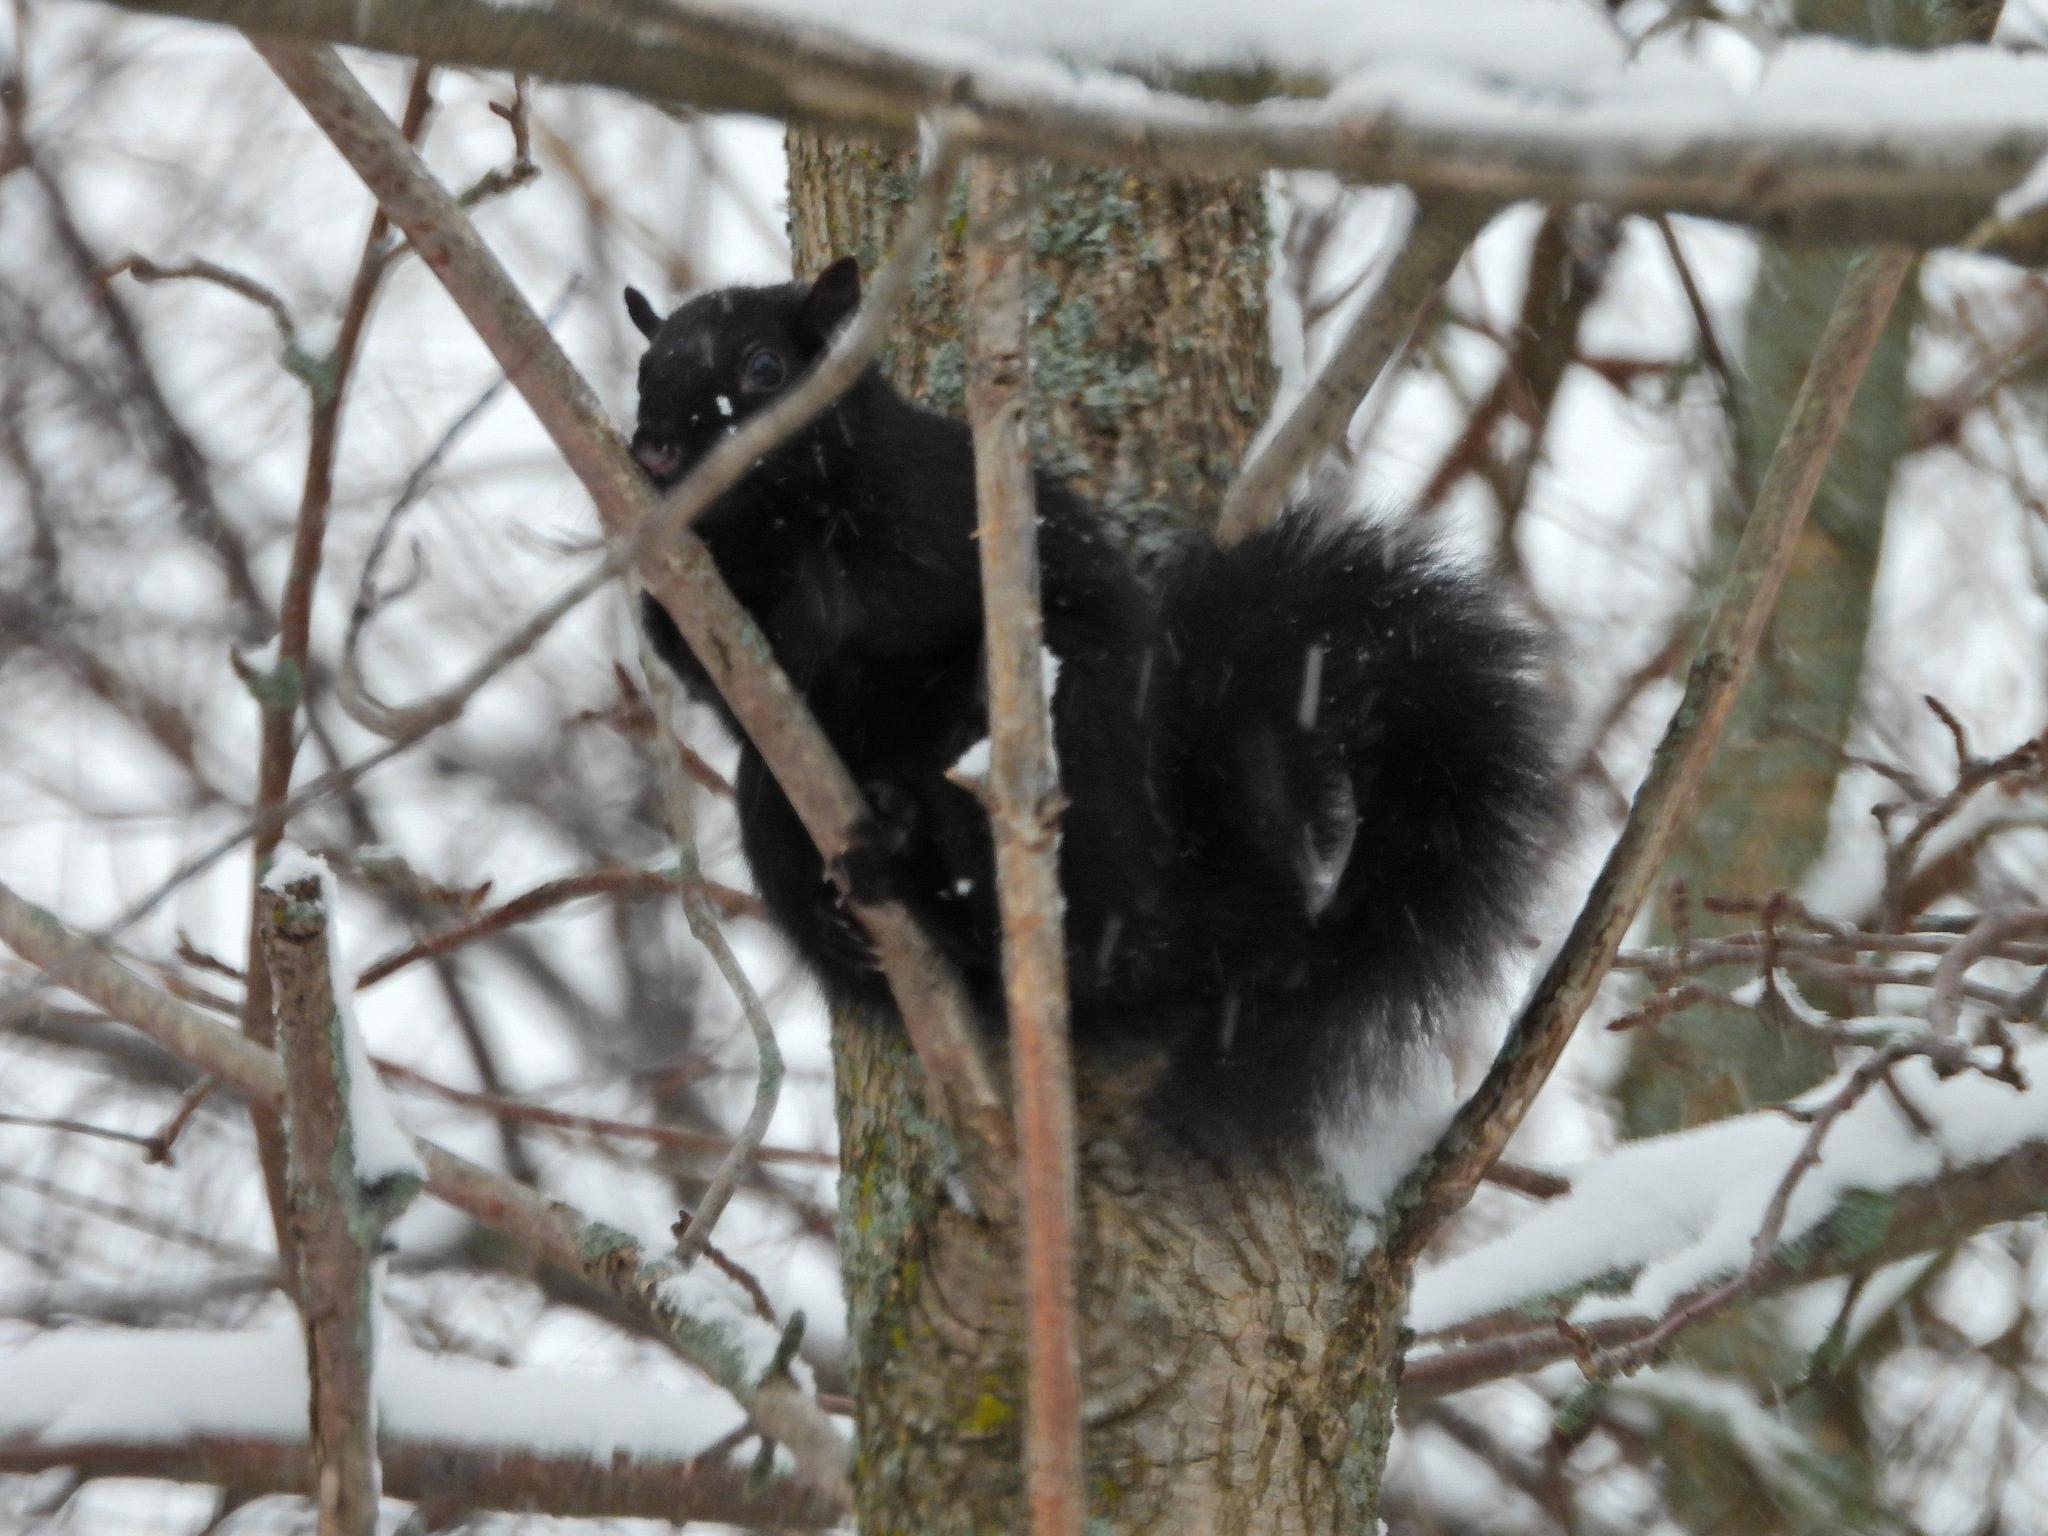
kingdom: Animalia
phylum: Chordata
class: Mammalia
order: Rodentia
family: Sciuridae
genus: Sciurus
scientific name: Sciurus carolinensis
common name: Eastern gray squirrel
